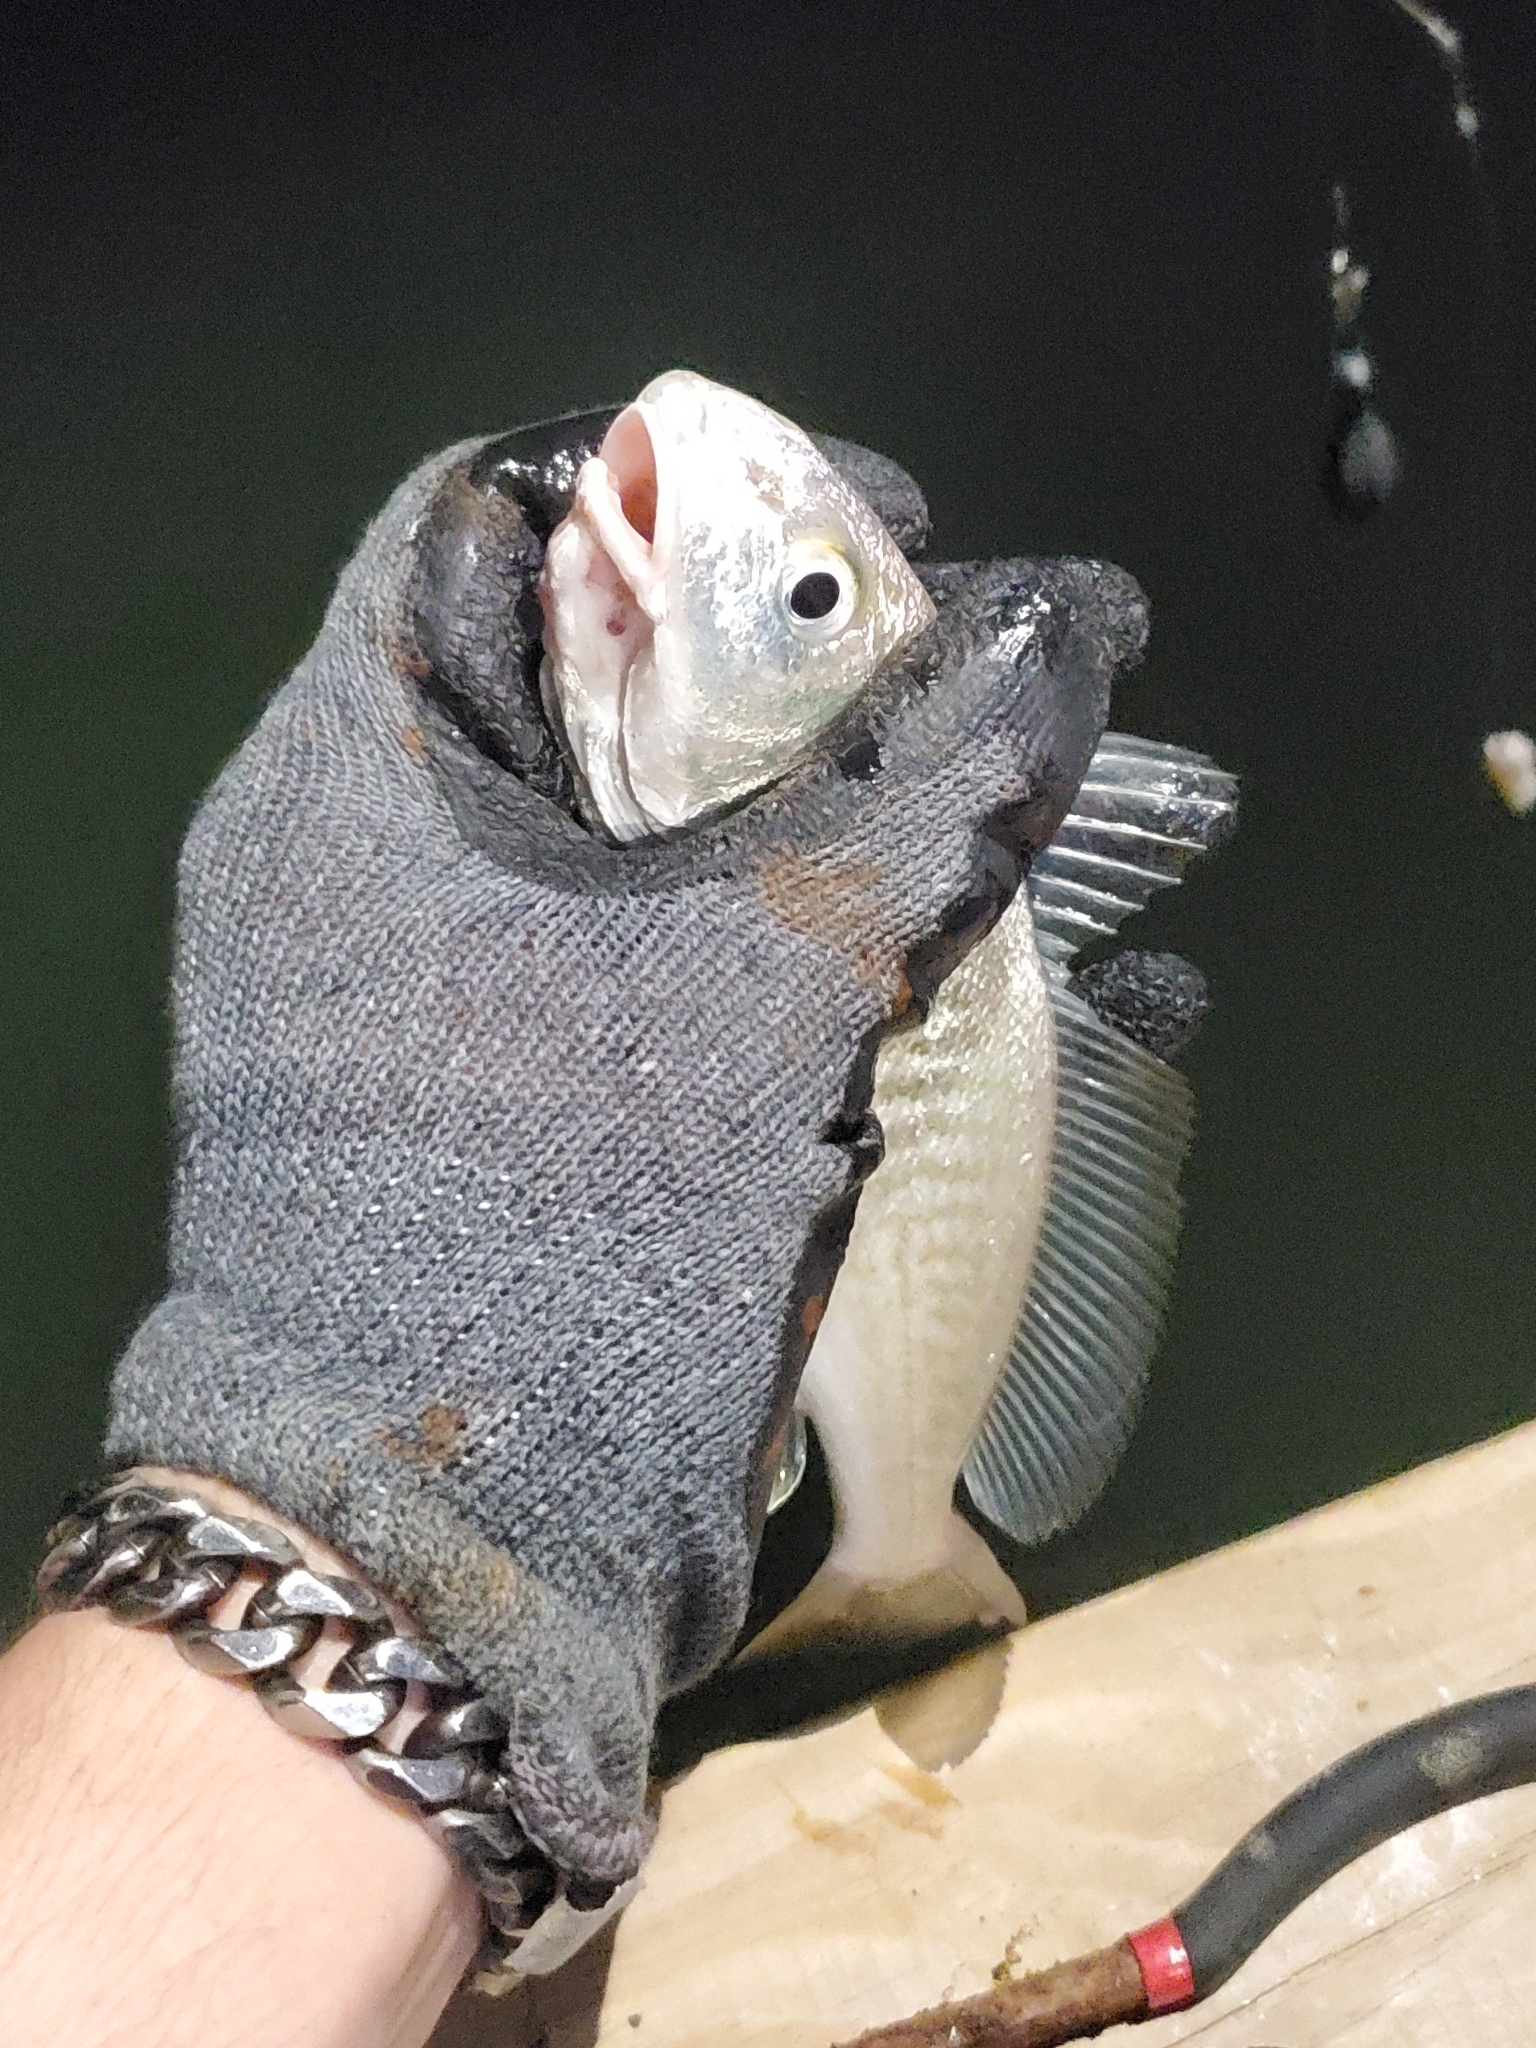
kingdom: Animalia
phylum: Chordata
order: Perciformes
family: Sciaenidae
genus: Micropogonias
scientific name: Micropogonias undulatus
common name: Atlantic croaker
